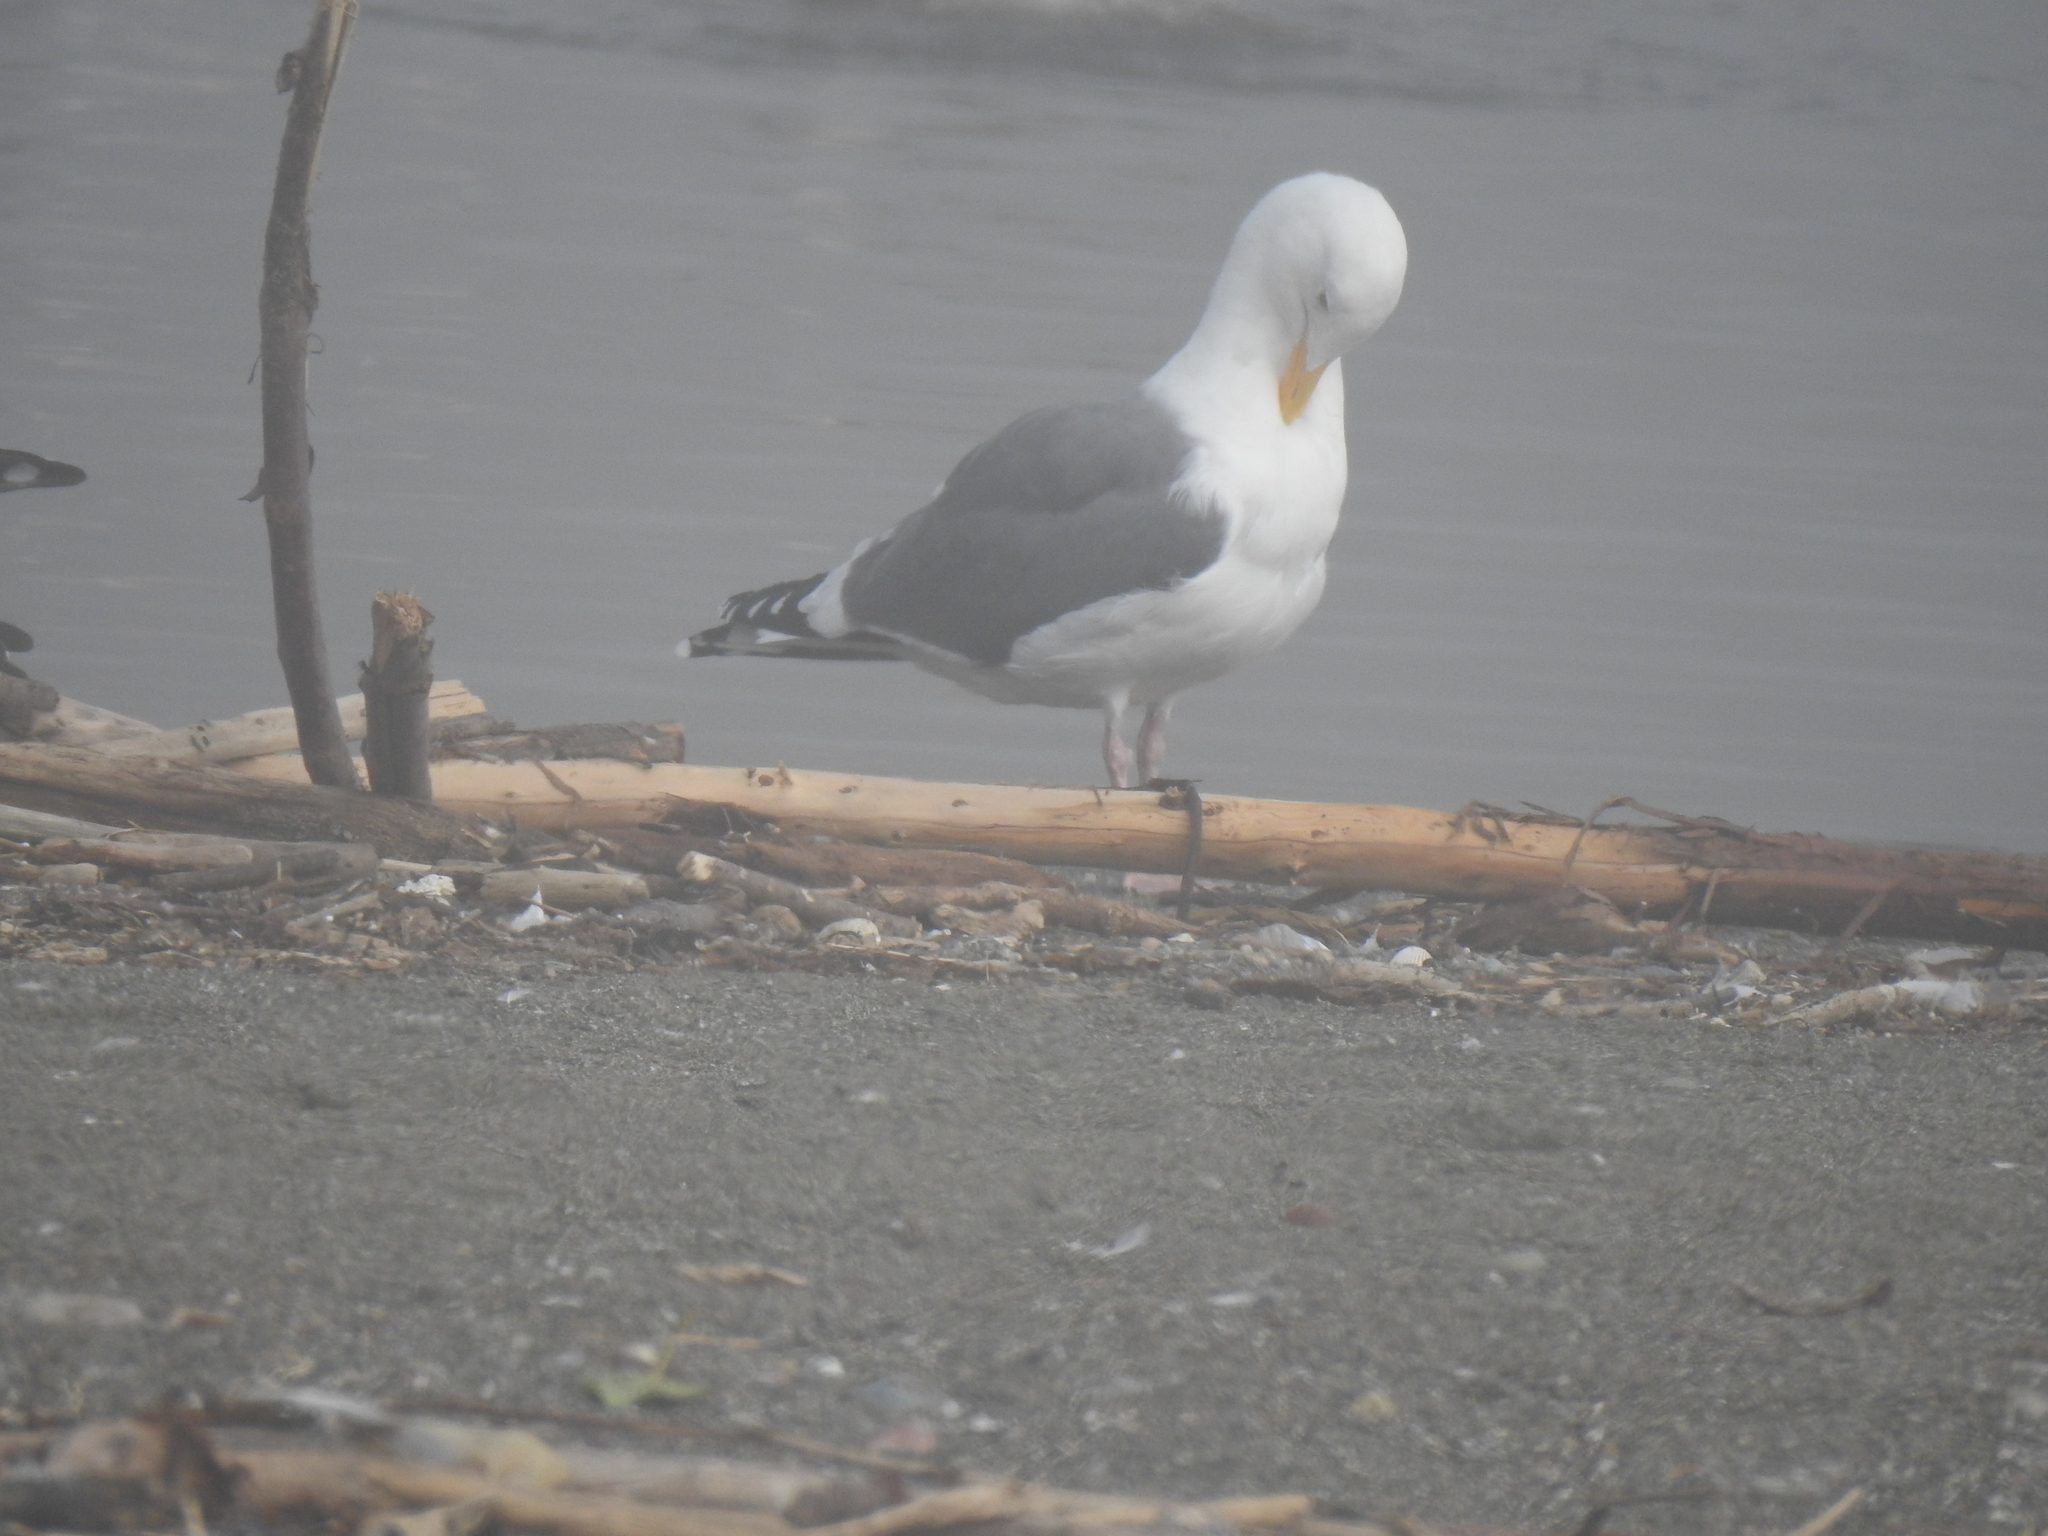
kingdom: Animalia
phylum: Chordata
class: Aves
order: Charadriiformes
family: Laridae
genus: Larus
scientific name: Larus occidentalis
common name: Western gull
